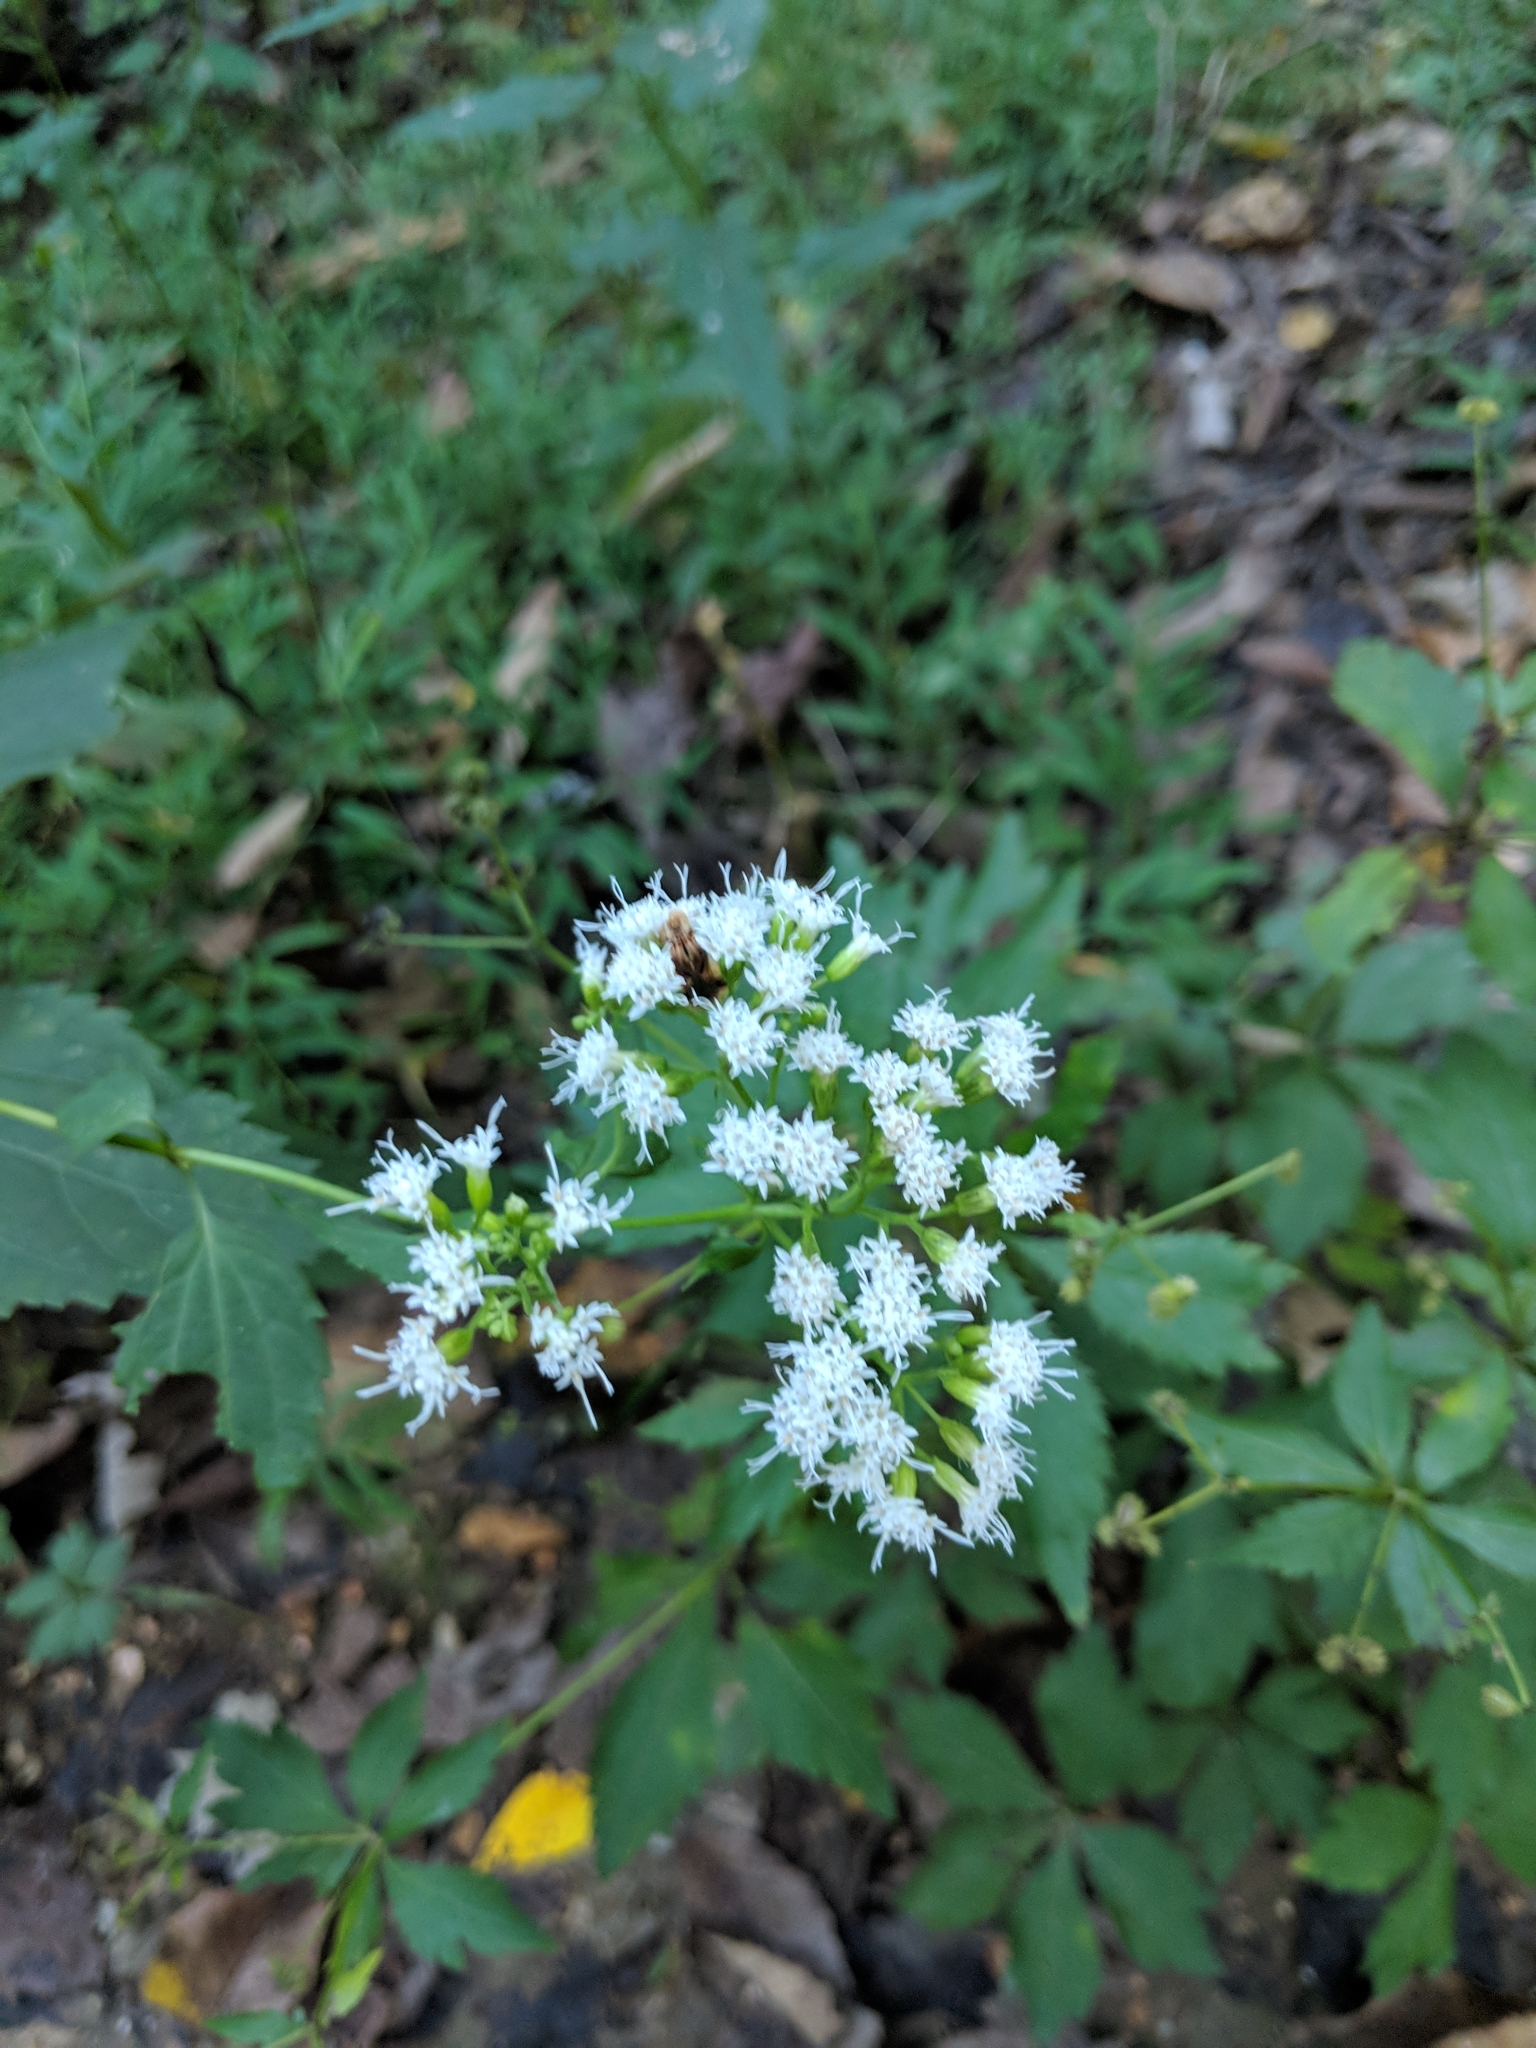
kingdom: Plantae
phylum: Tracheophyta
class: Magnoliopsida
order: Asterales
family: Asteraceae
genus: Ageratina
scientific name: Ageratina altissima
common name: White snakeroot
